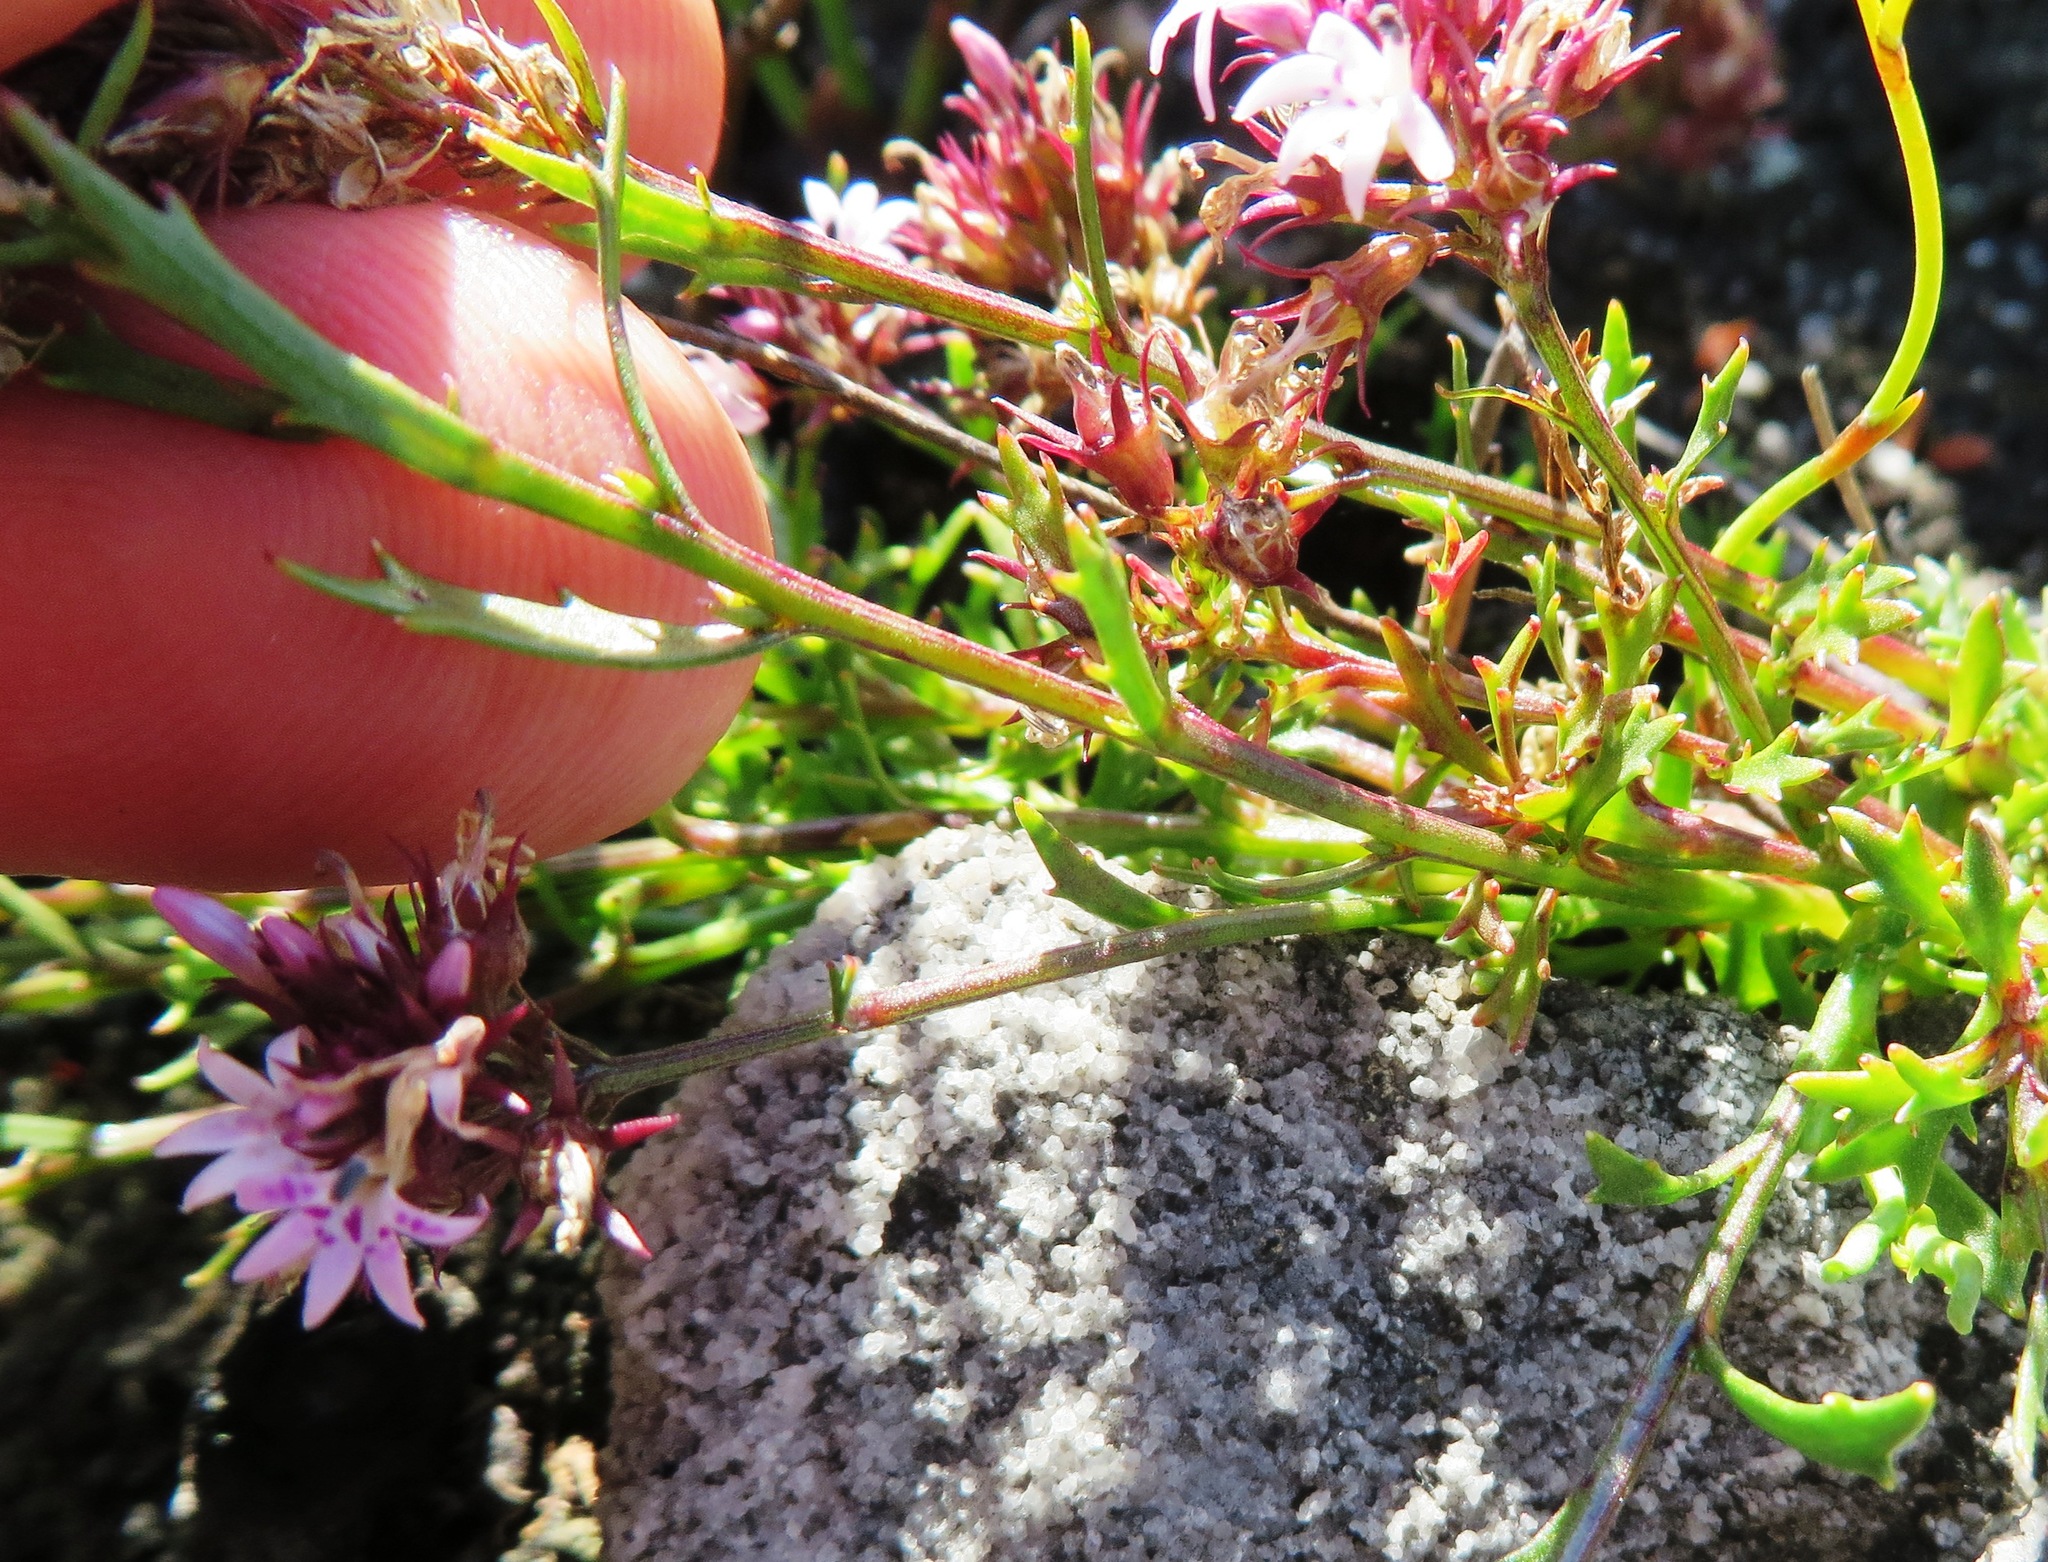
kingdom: Plantae
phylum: Tracheophyta
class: Magnoliopsida
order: Asterales
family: Campanulaceae
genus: Lobelia
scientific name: Lobelia jasionoides
